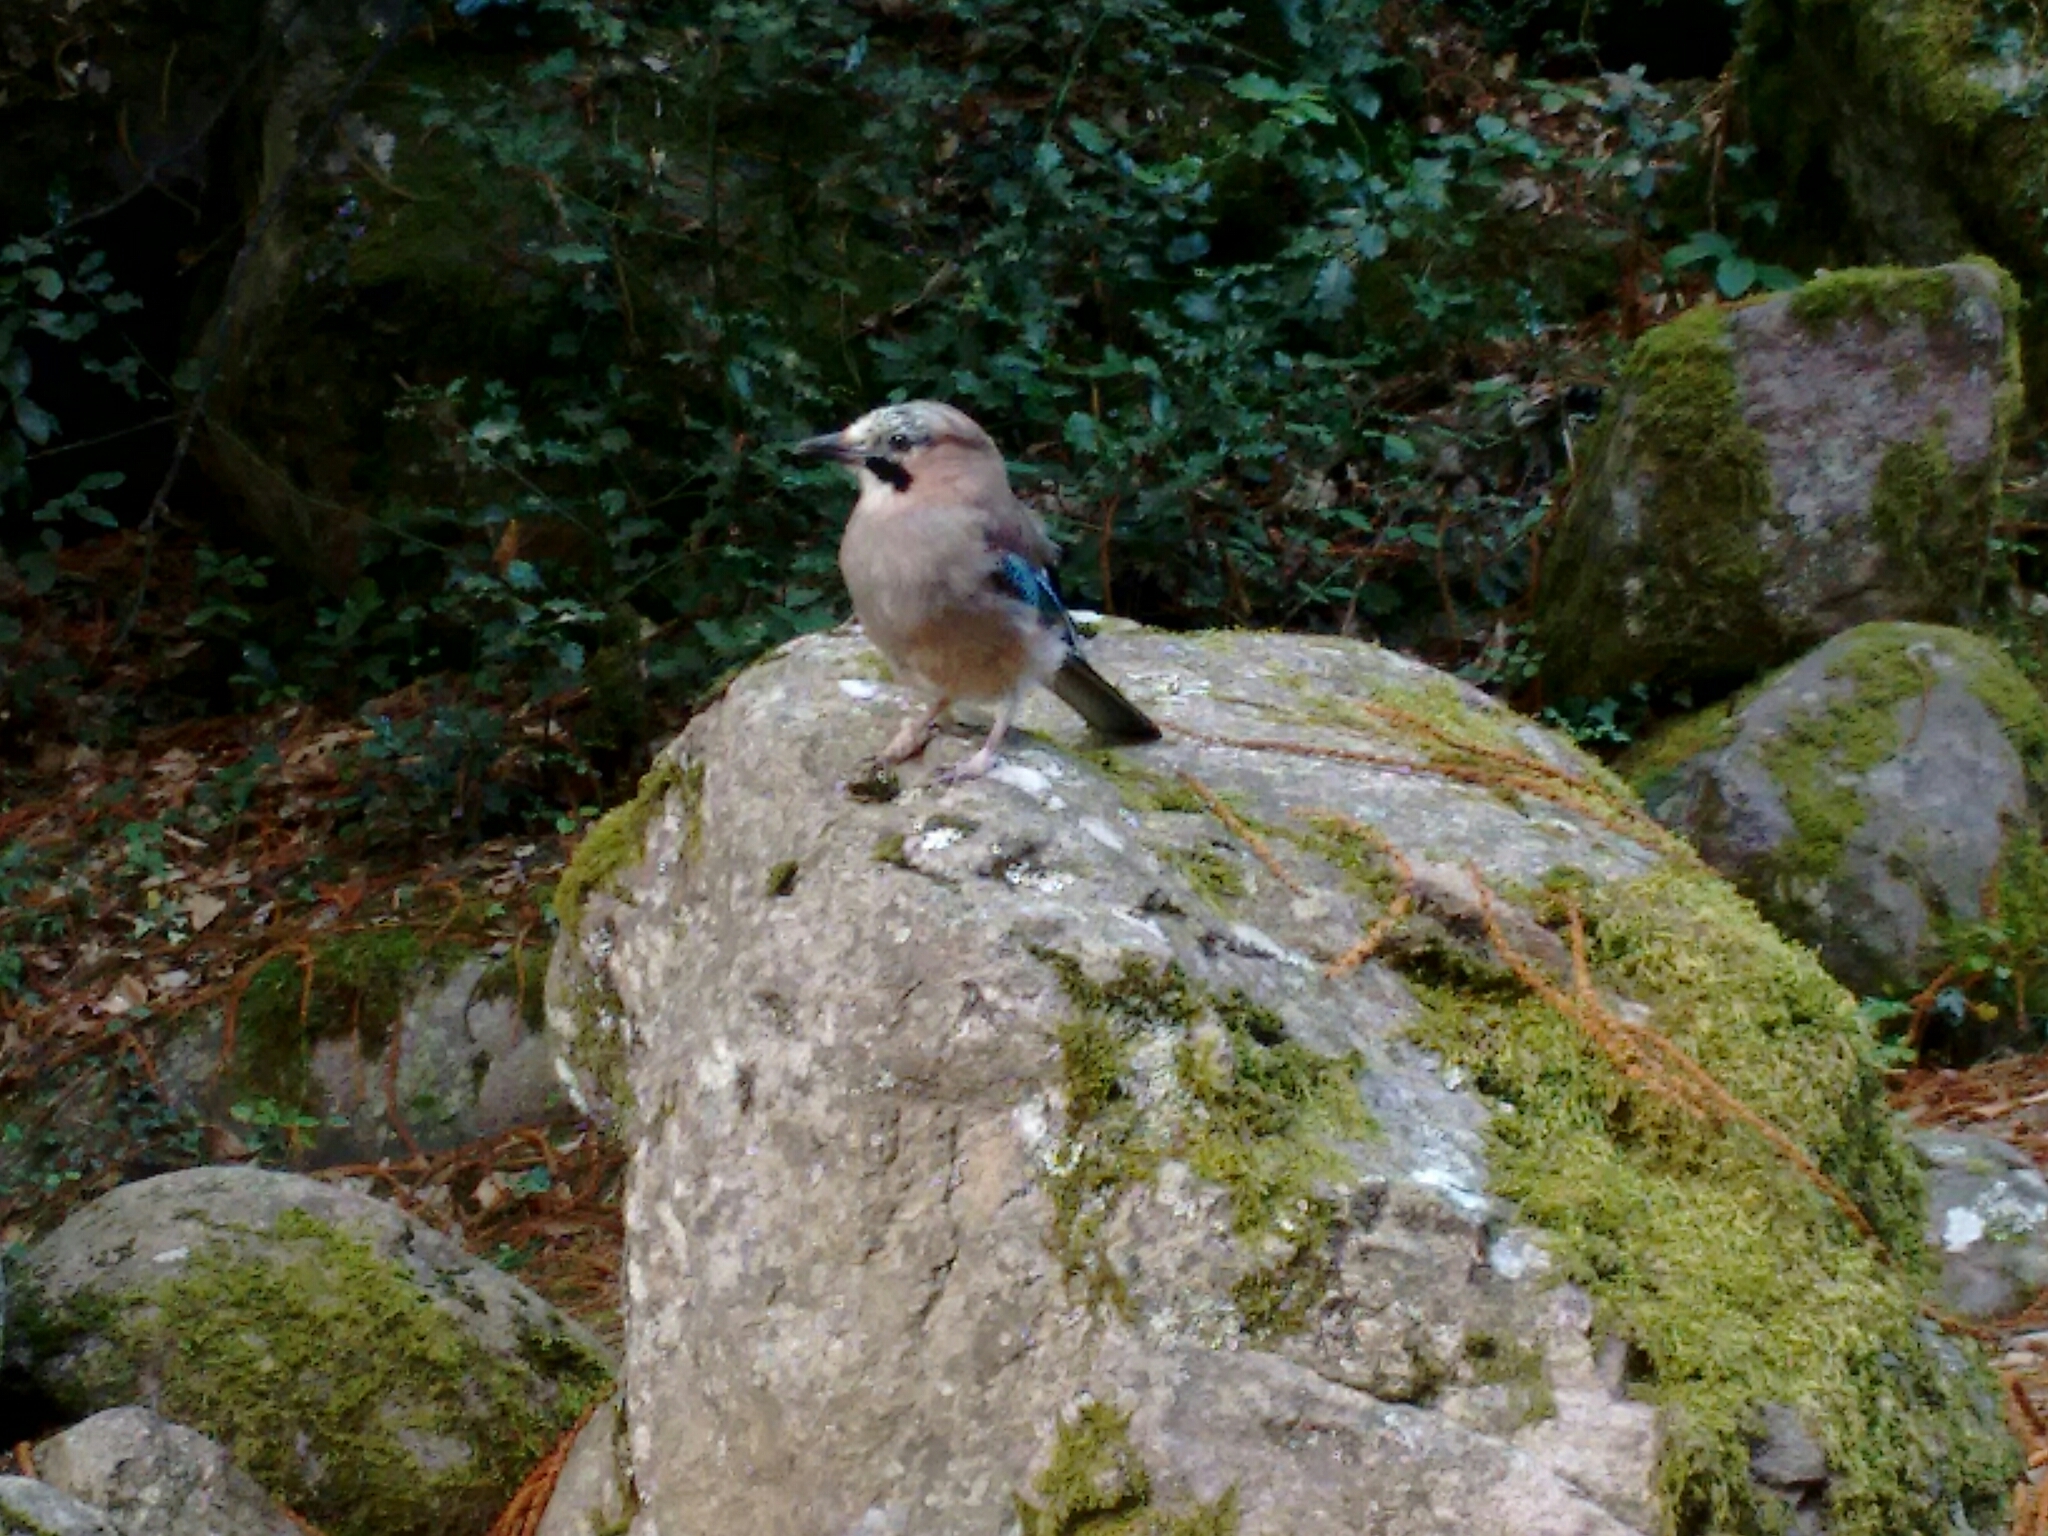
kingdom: Animalia
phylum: Chordata
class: Aves
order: Passeriformes
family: Corvidae
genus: Garrulus
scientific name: Garrulus glandarius
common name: Eurasian jay
